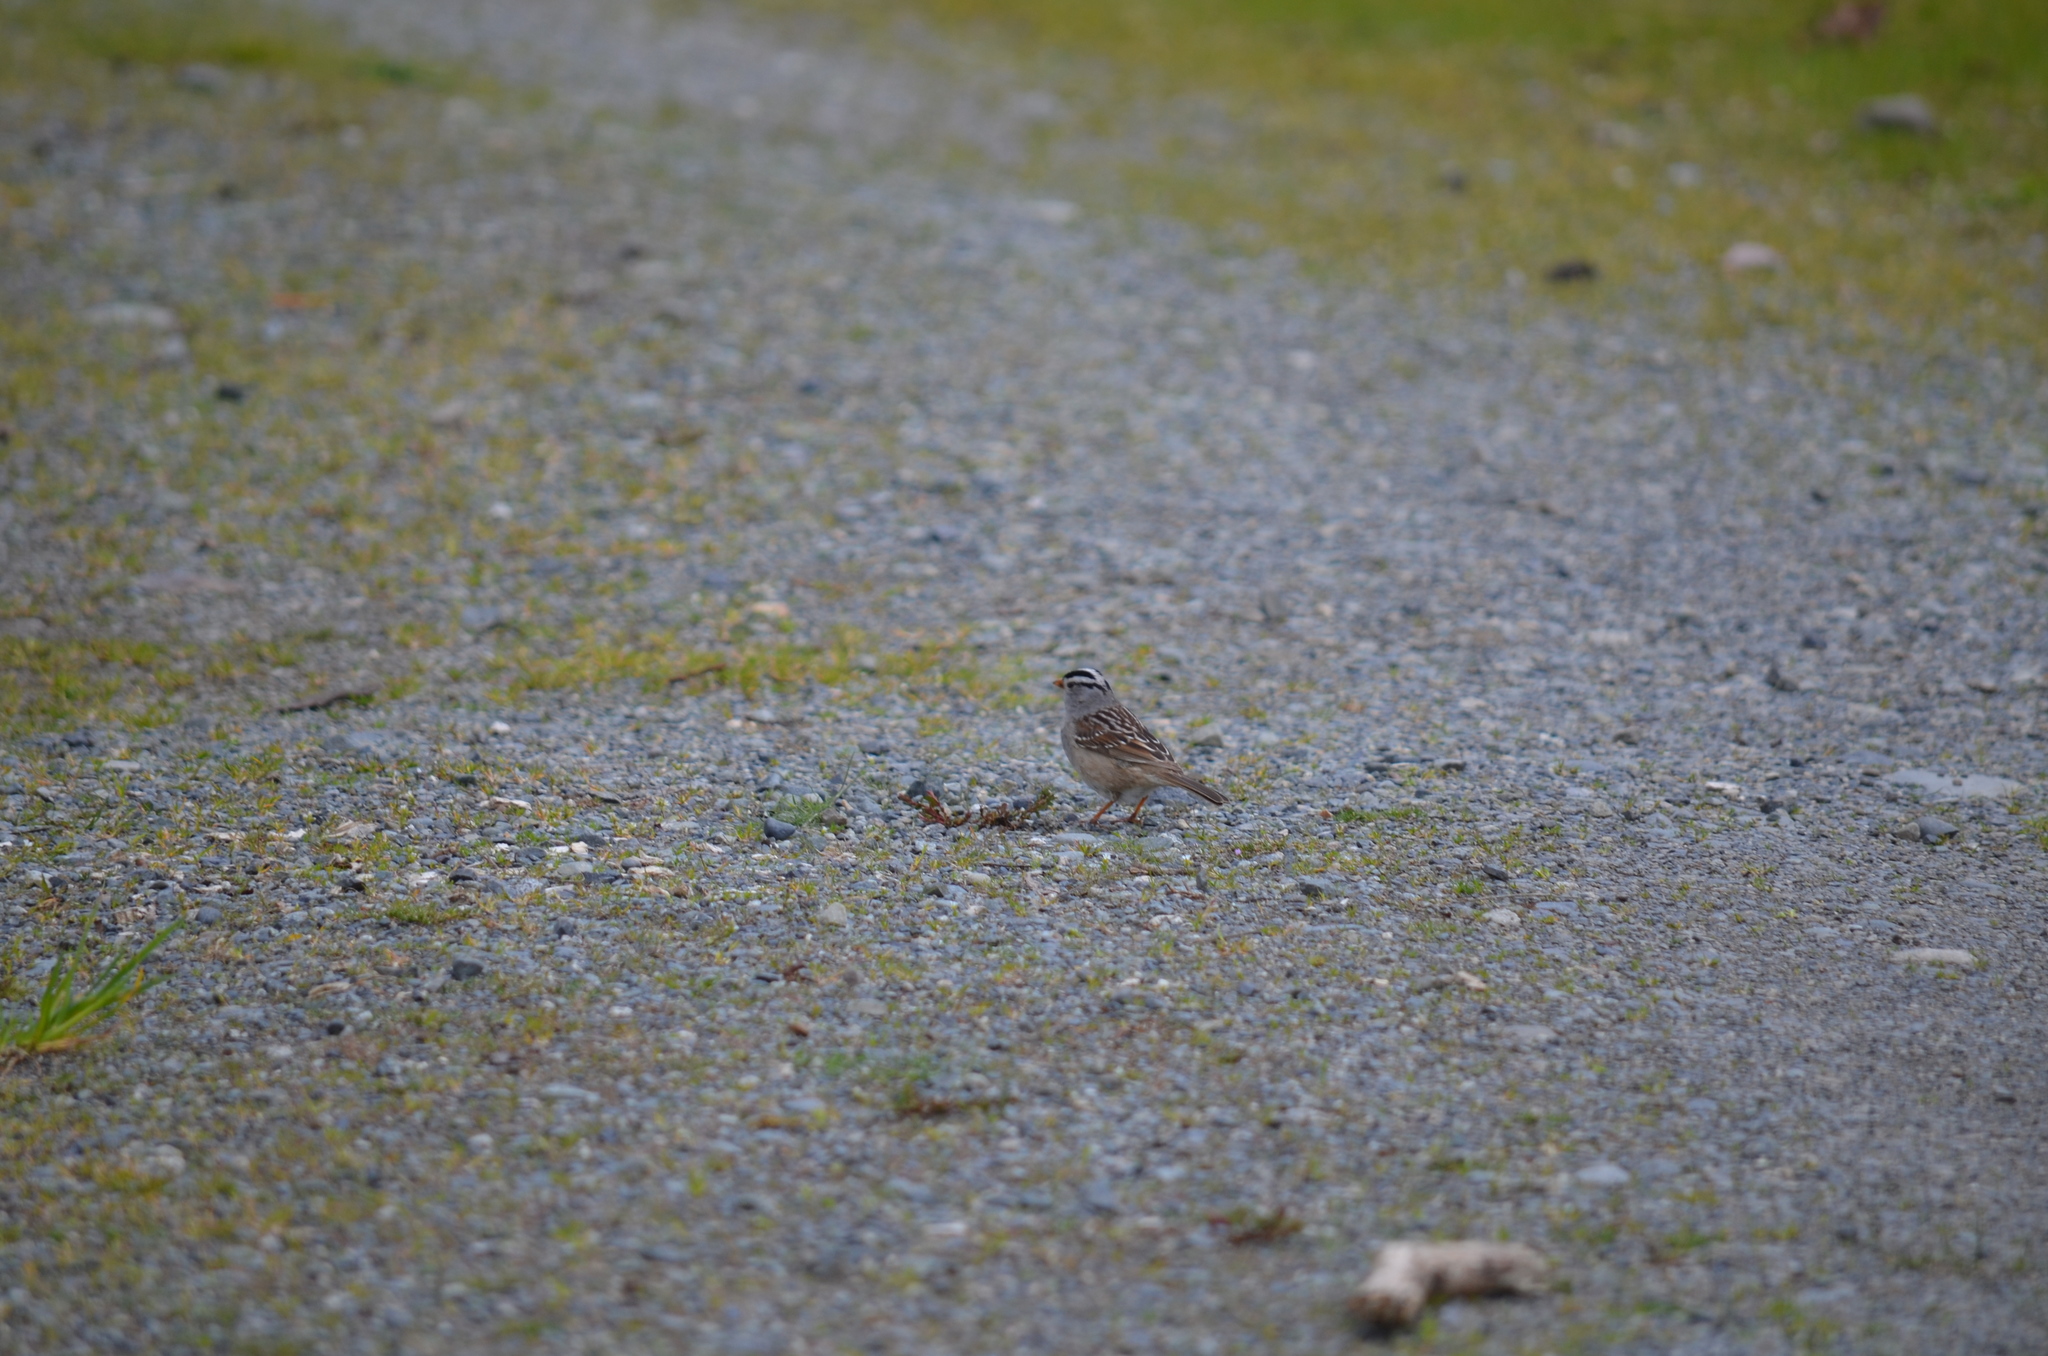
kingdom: Animalia
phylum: Chordata
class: Aves
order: Passeriformes
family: Passerellidae
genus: Zonotrichia
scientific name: Zonotrichia leucophrys
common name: White-crowned sparrow
